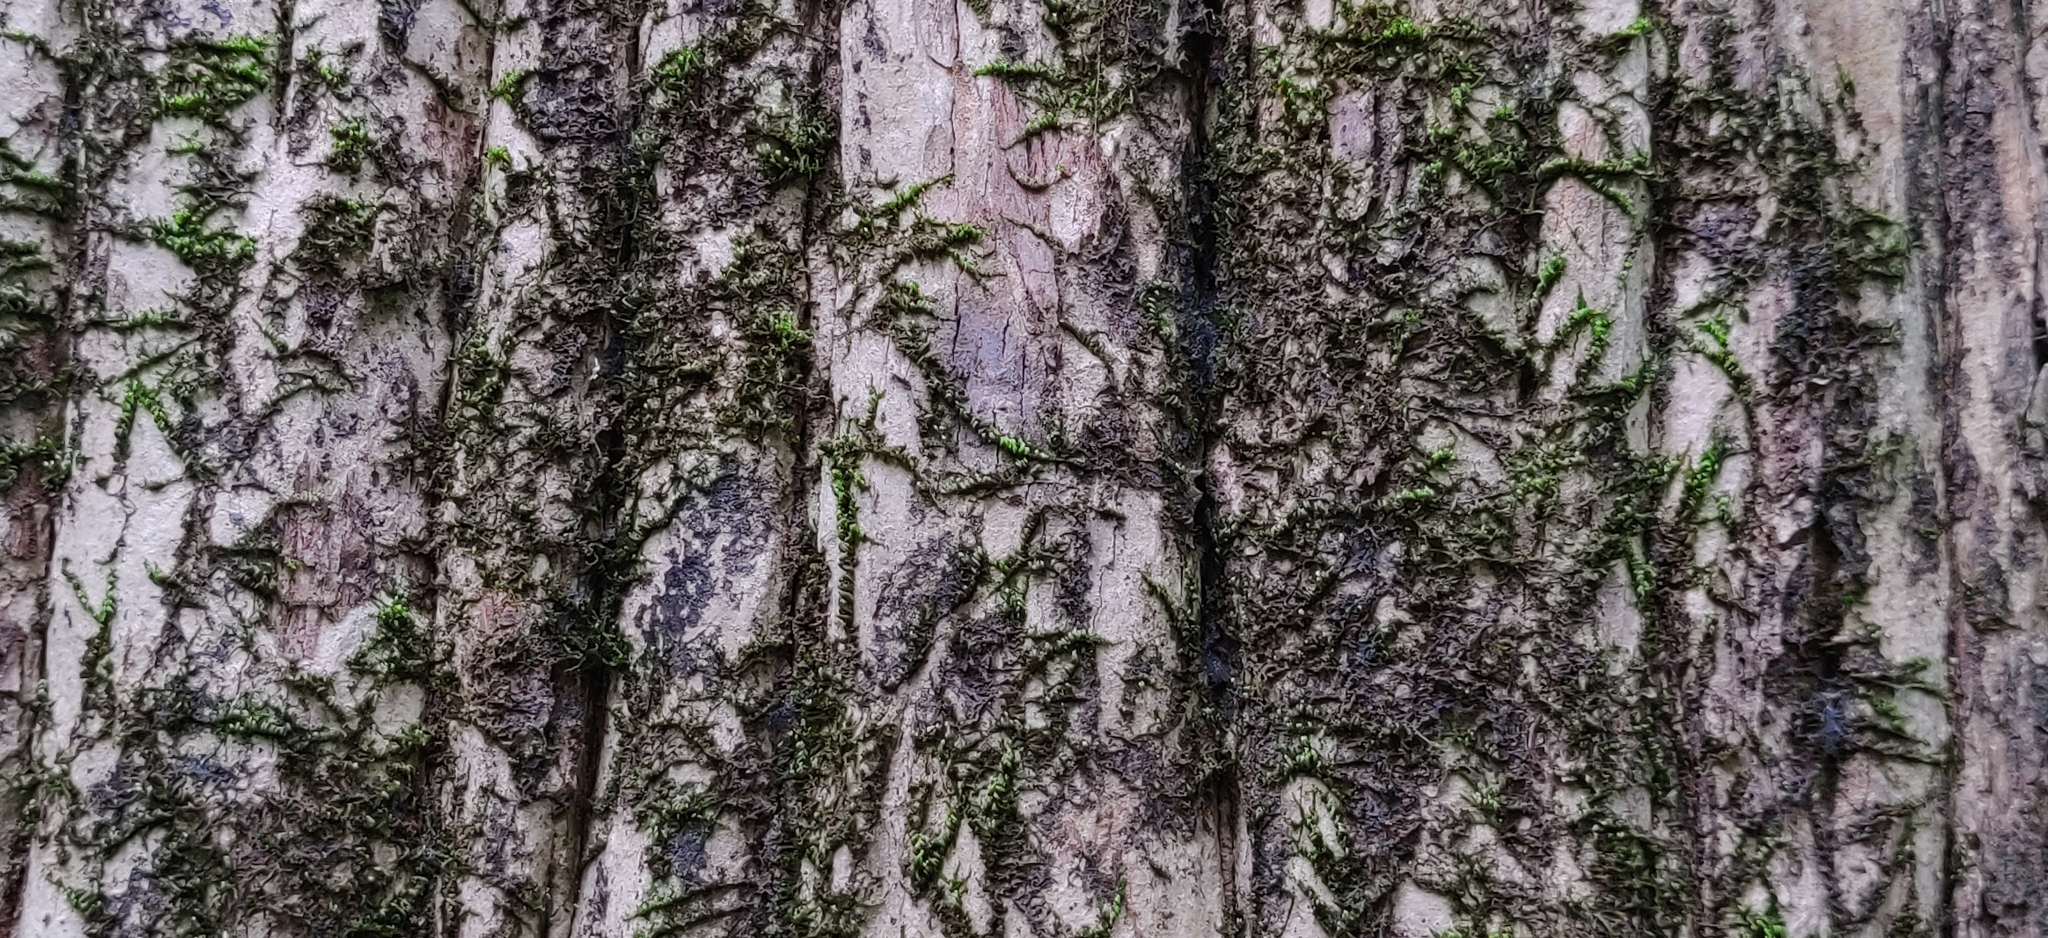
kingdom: Plantae
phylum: Tracheophyta
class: Magnoliopsida
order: Myrtales
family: Lythraceae
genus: Lagerstroemia
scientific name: Lagerstroemia microcarpa
